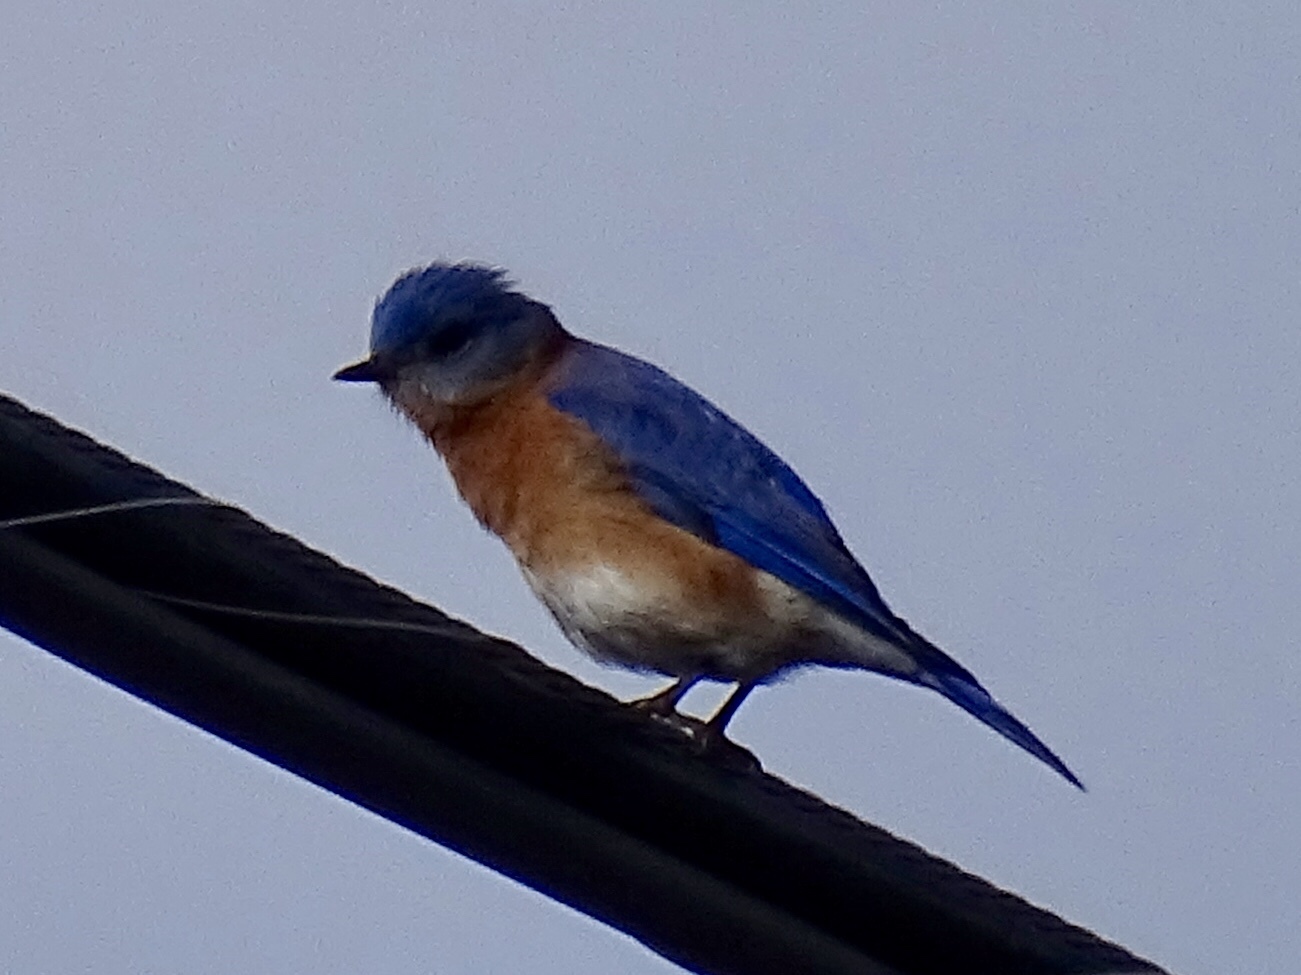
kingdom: Animalia
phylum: Chordata
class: Aves
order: Passeriformes
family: Turdidae
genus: Sialia
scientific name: Sialia sialis
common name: Eastern bluebird
